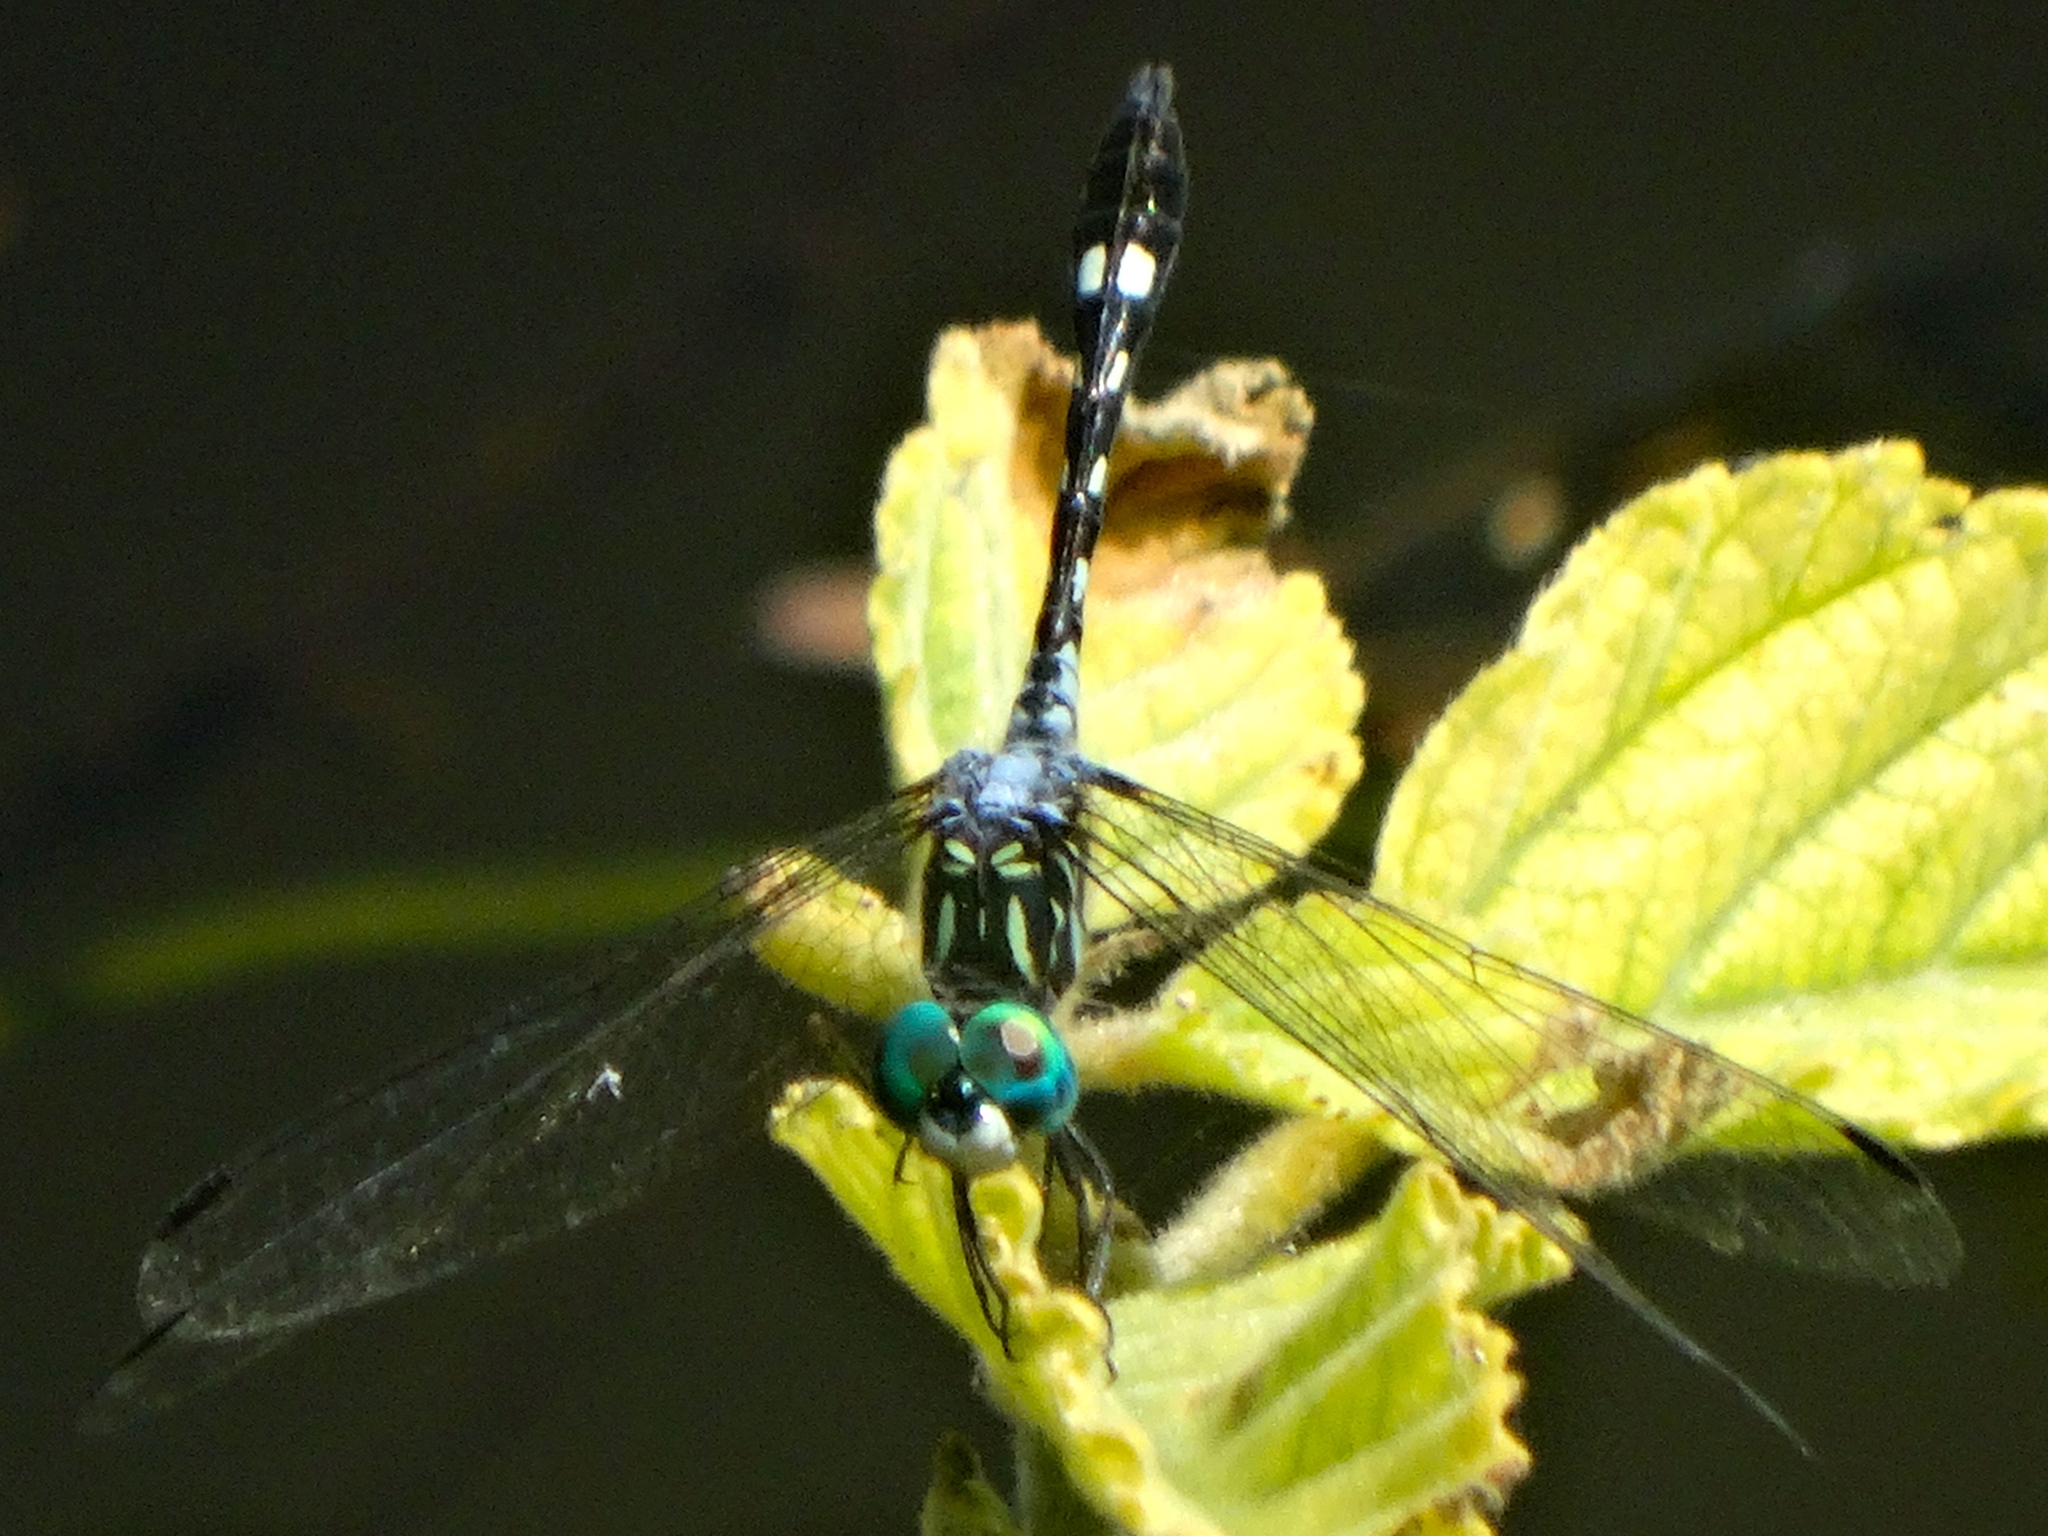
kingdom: Animalia
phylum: Arthropoda
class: Insecta
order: Odonata
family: Libellulidae
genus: Micrathyria
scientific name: Micrathyria hagenii
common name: Thornbush dasher
